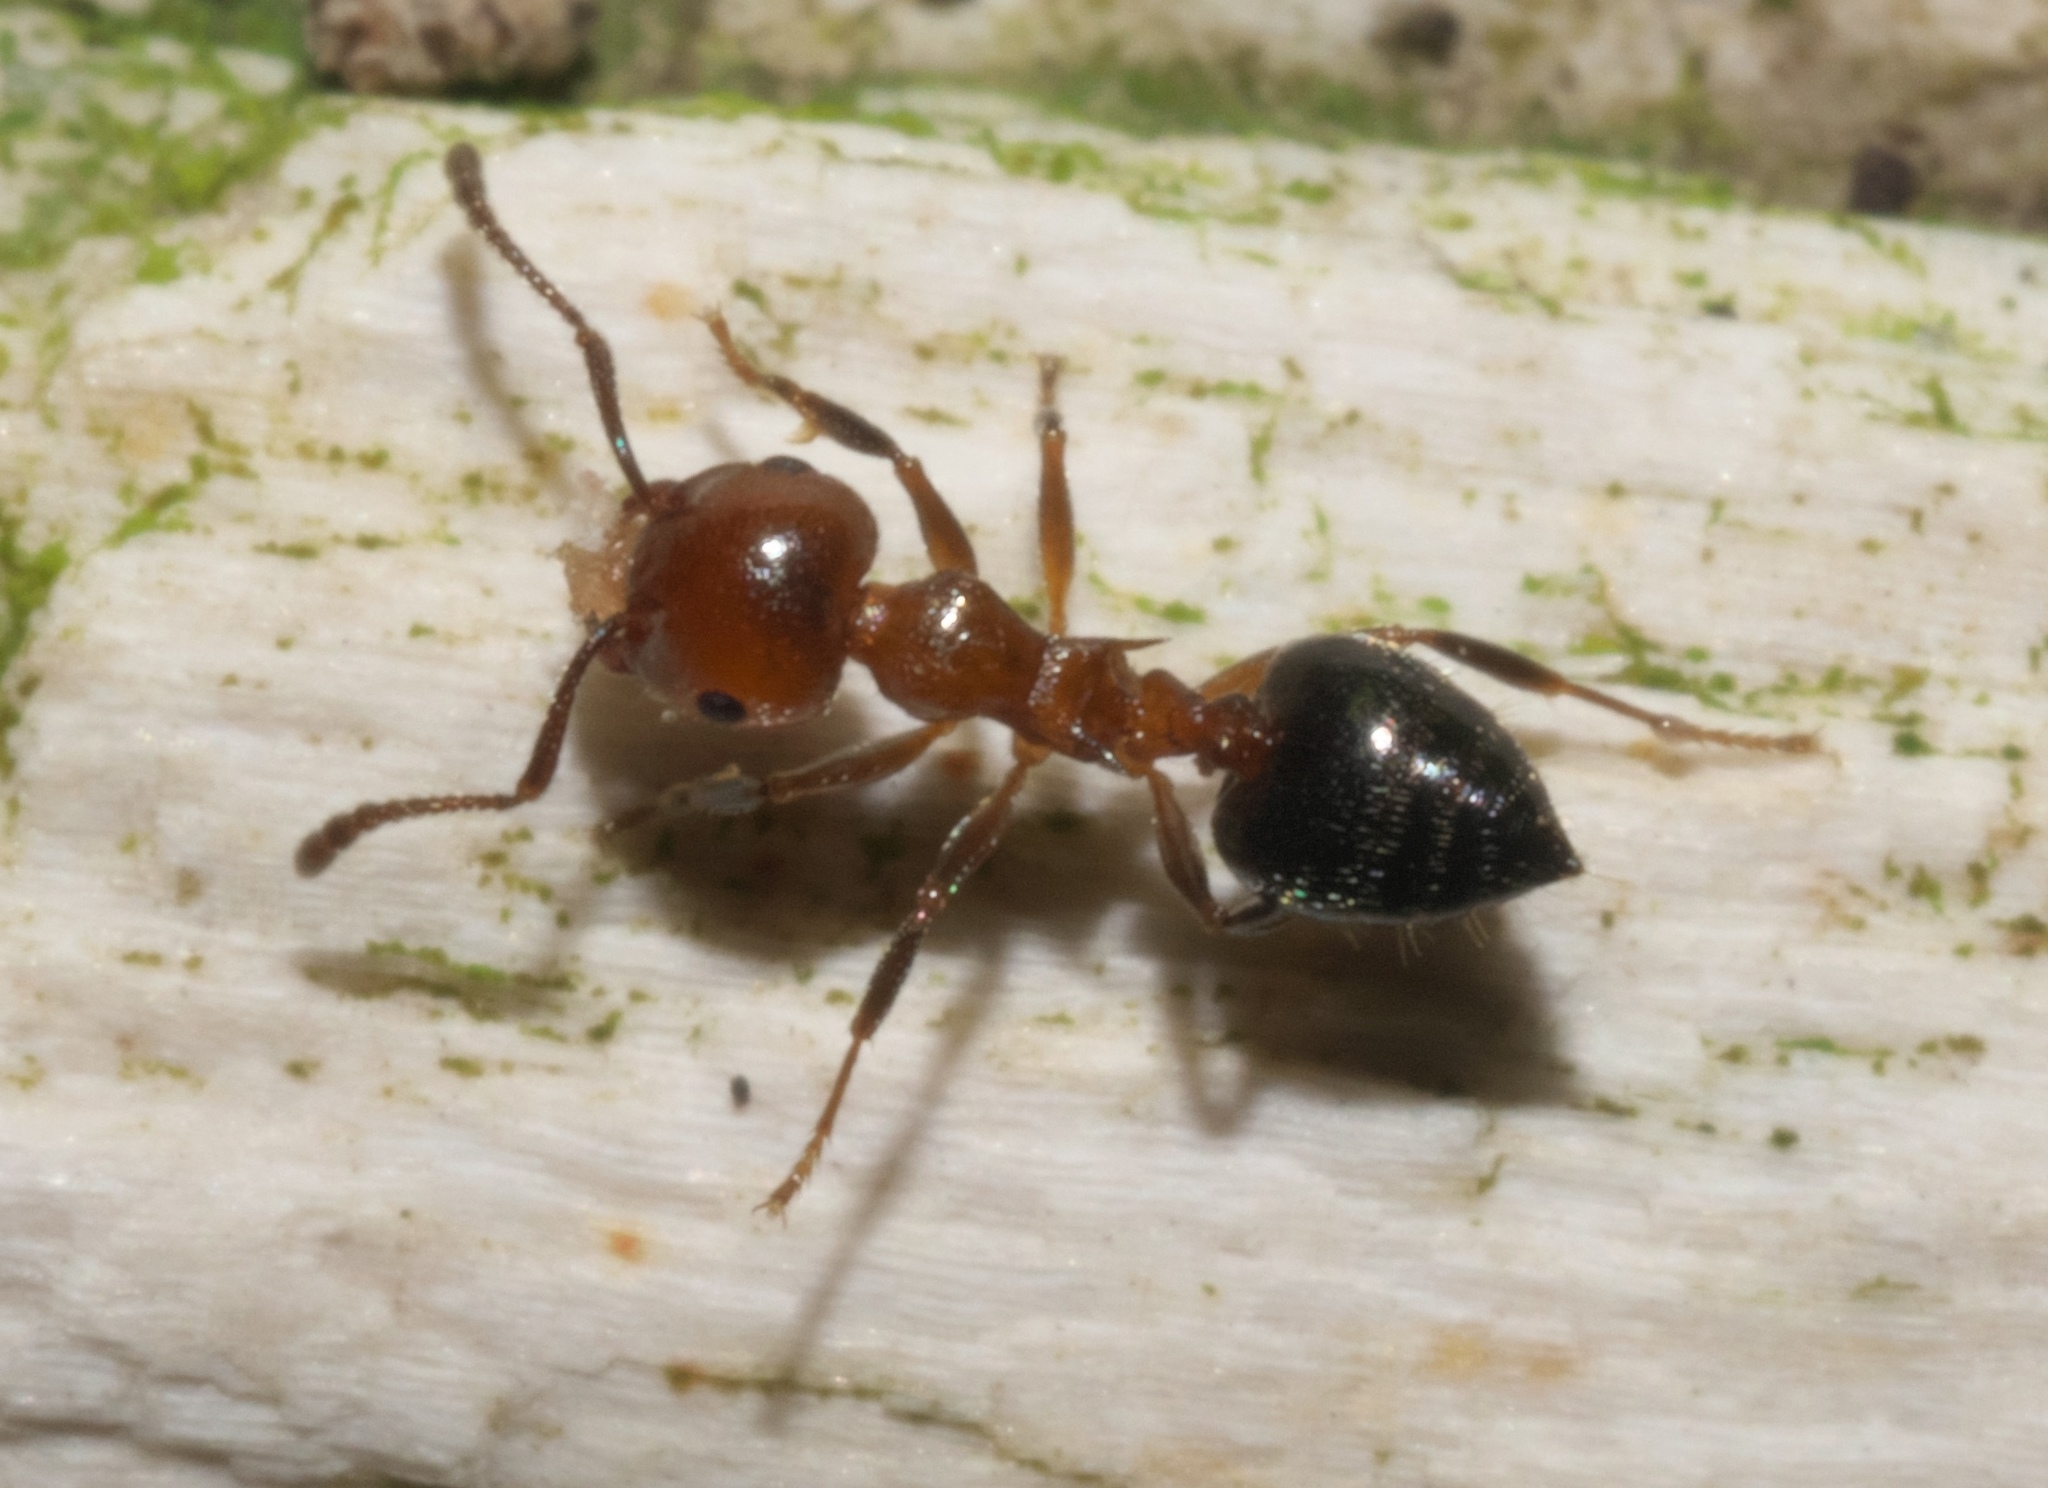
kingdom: Animalia
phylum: Arthropoda
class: Insecta
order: Hymenoptera
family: Formicidae
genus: Crematogaster
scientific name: Crematogaster laeviuscula
